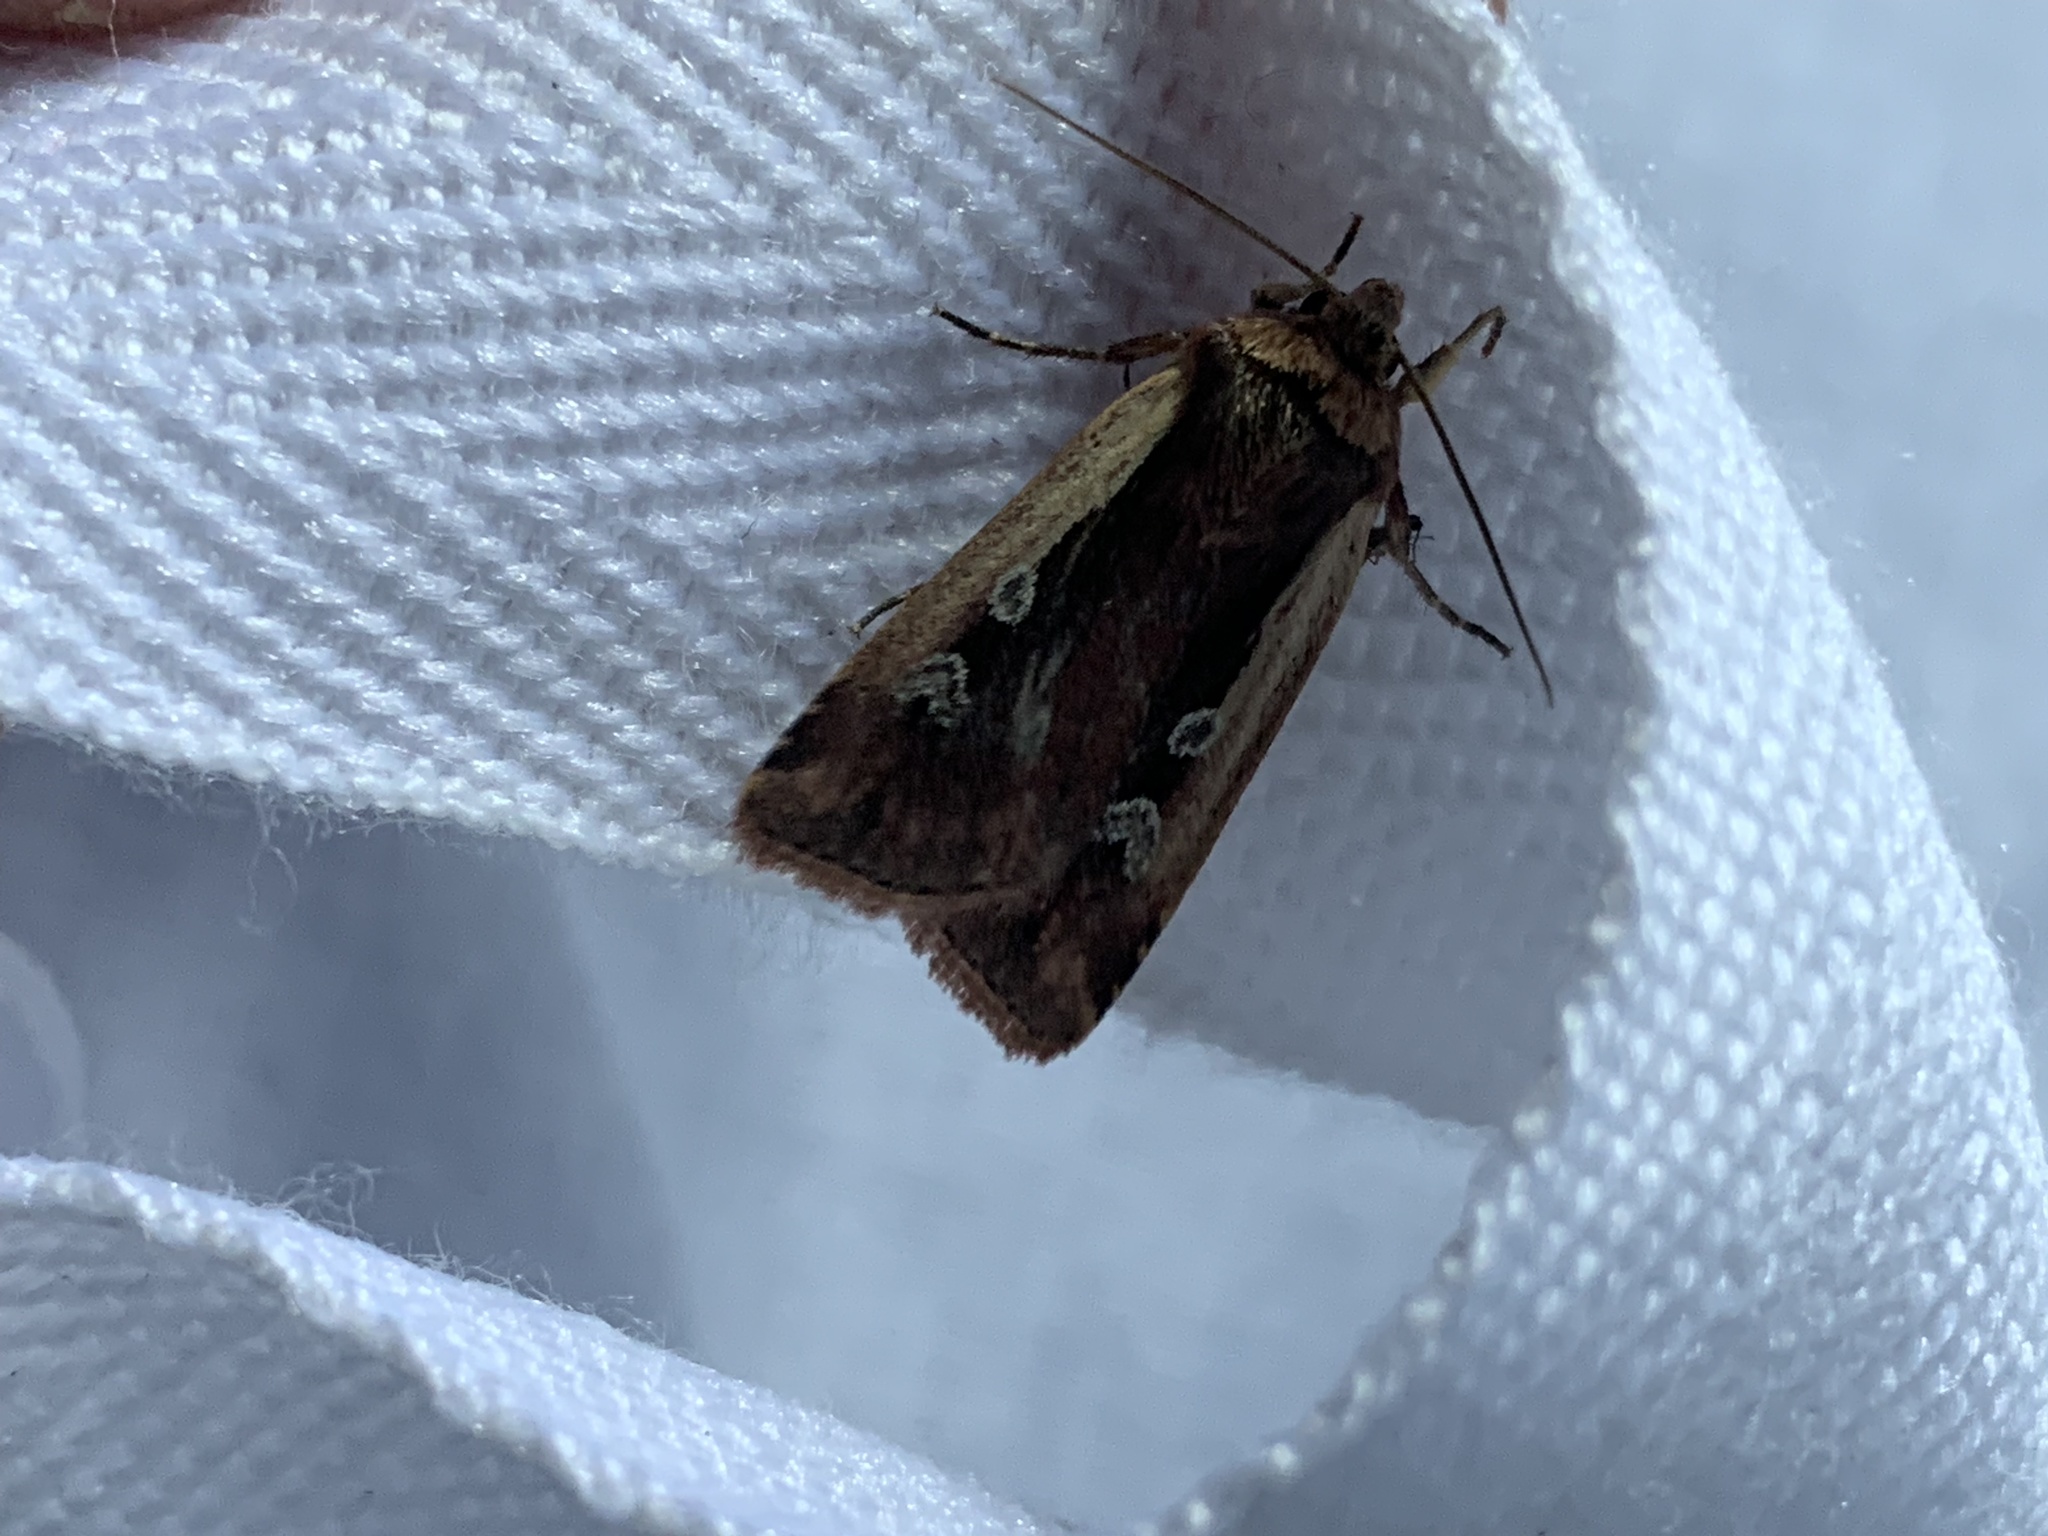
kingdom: Animalia
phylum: Arthropoda
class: Insecta
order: Lepidoptera
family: Noctuidae
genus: Ochropleura
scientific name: Ochropleura plecta
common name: Flame shoulder
